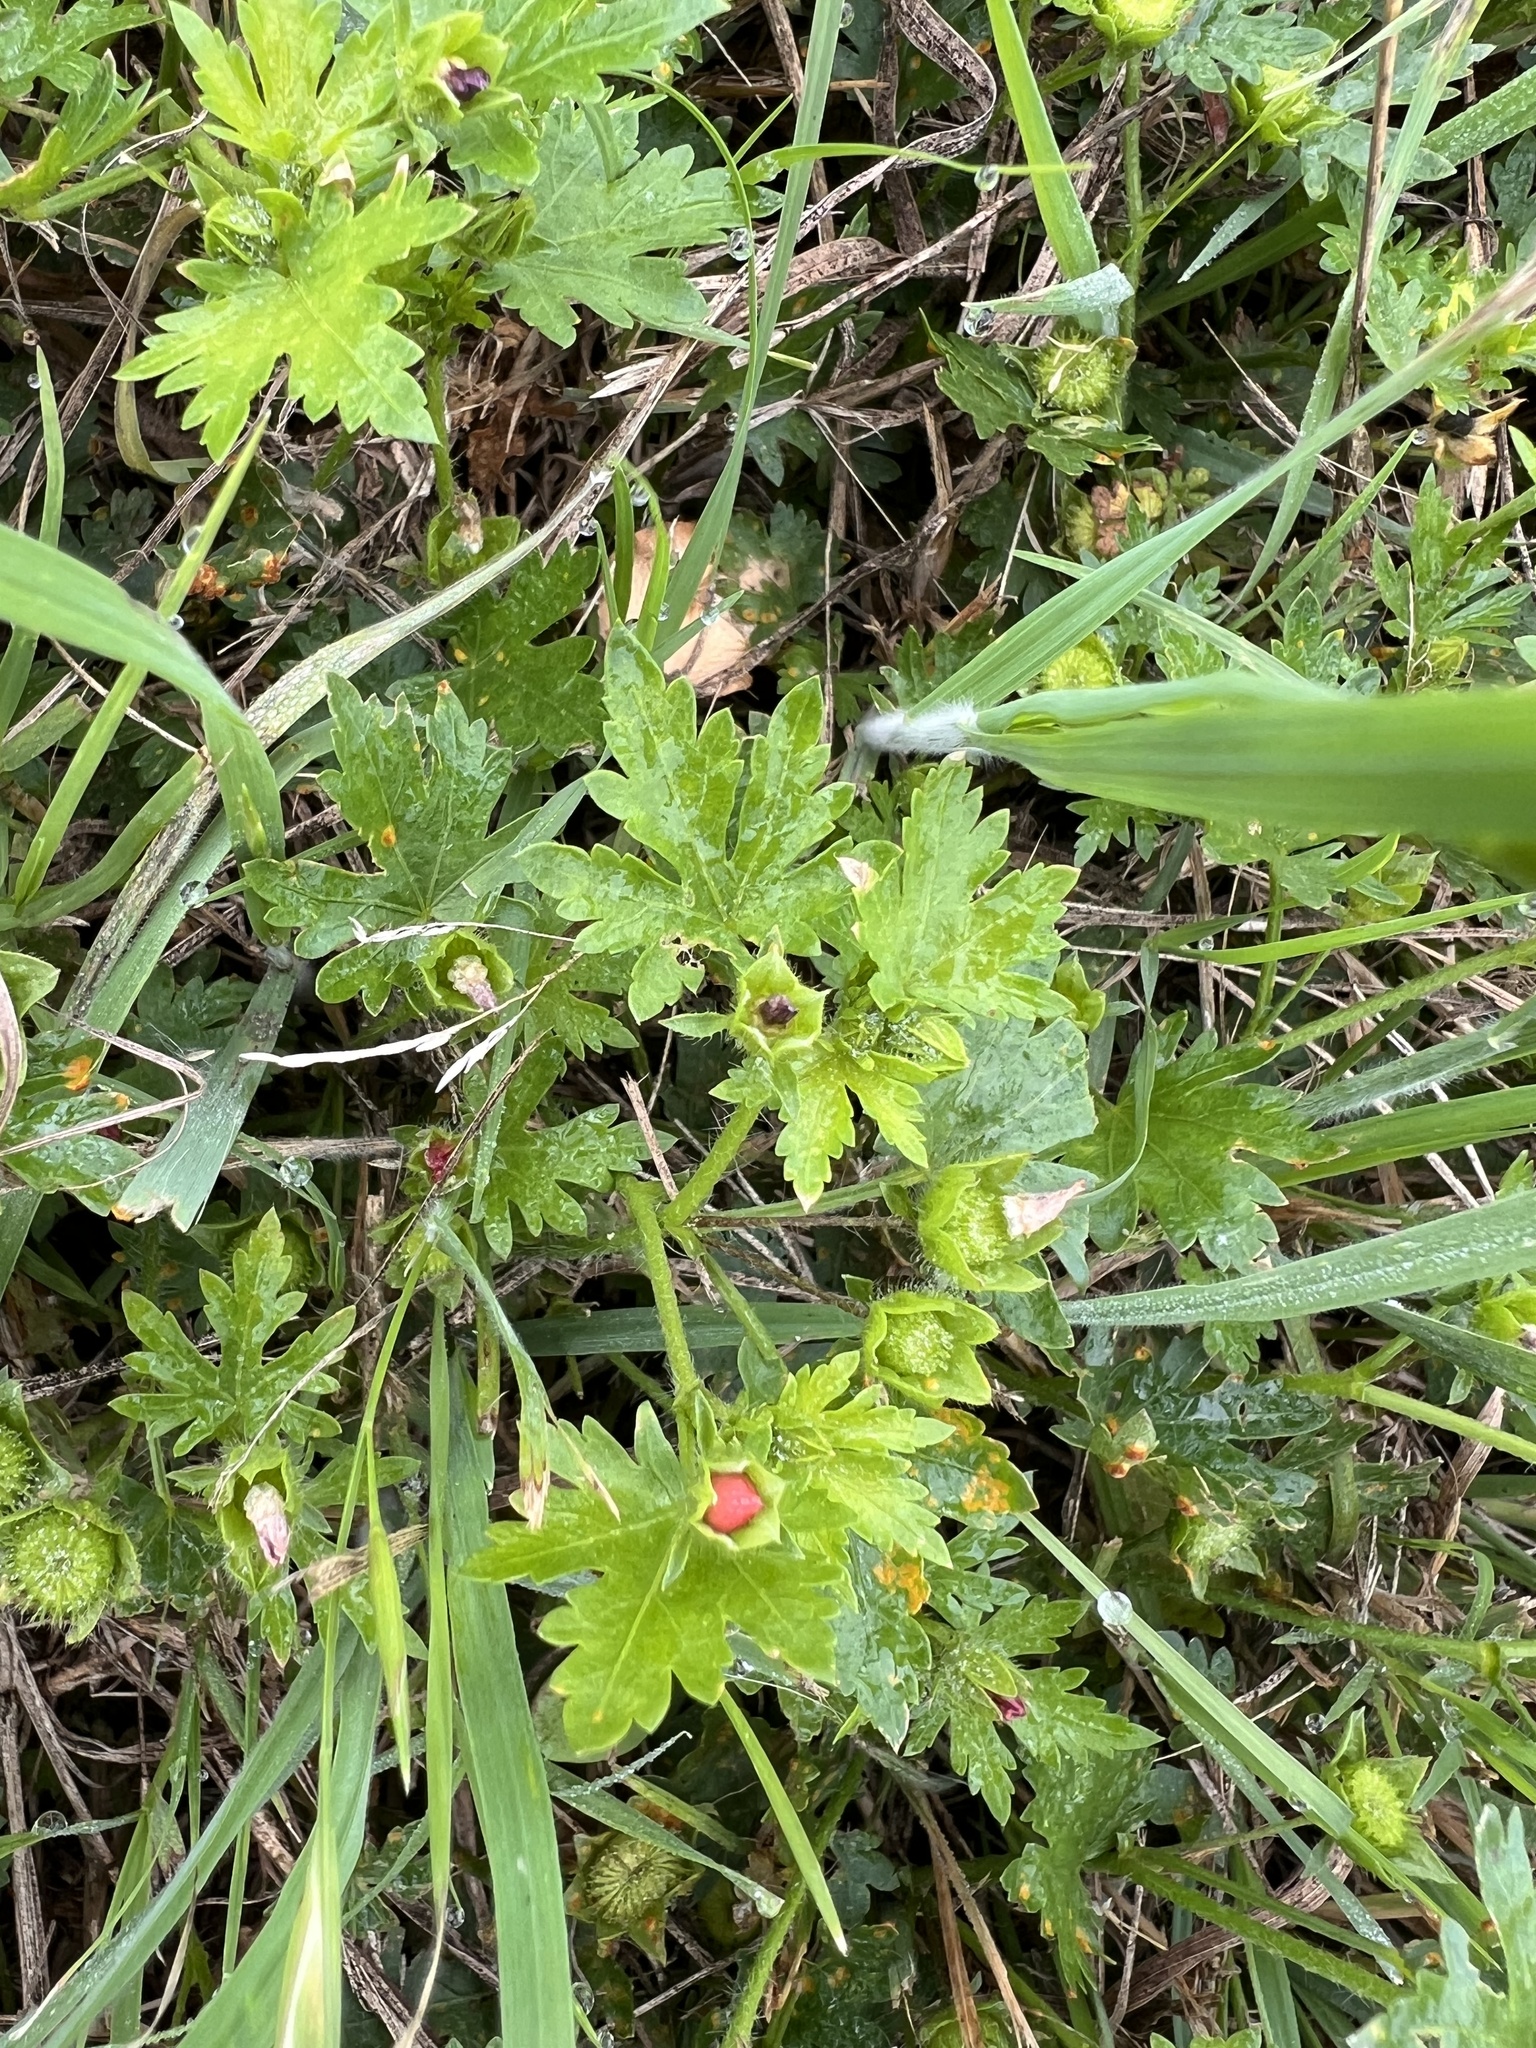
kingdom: Plantae
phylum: Tracheophyta
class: Magnoliopsida
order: Malvales
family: Malvaceae
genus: Modiola
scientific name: Modiola caroliniana
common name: Carolina bristlemallow
